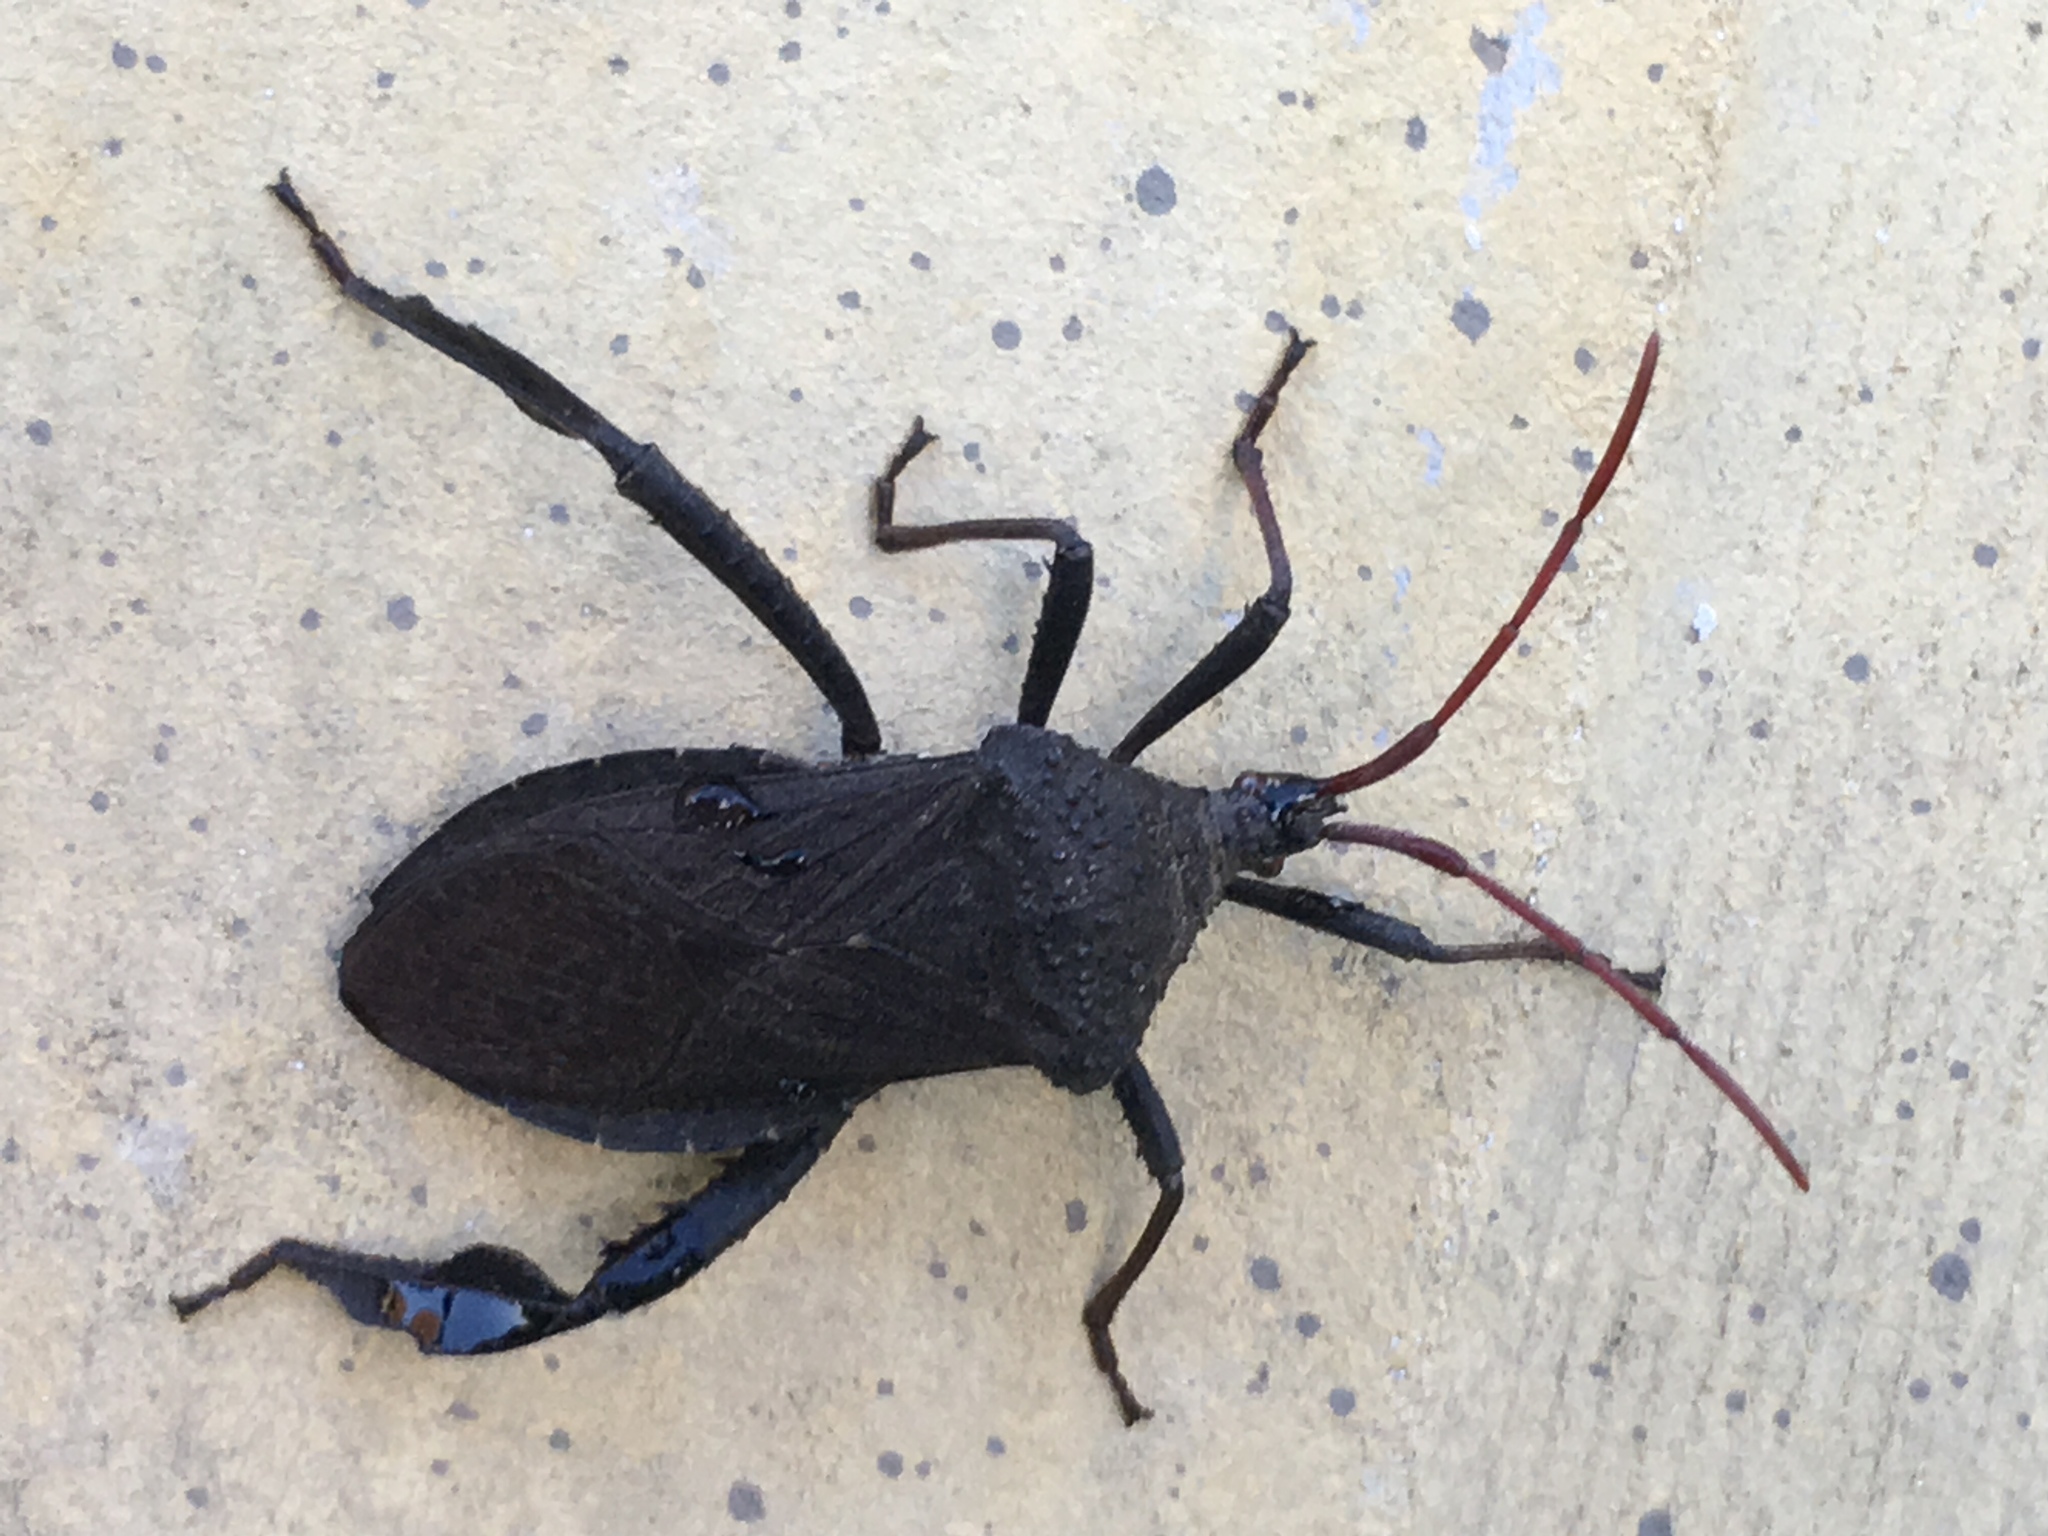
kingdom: Animalia
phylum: Arthropoda
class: Insecta
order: Hemiptera
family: Coreidae
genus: Acanthocephala
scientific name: Acanthocephala femorata
